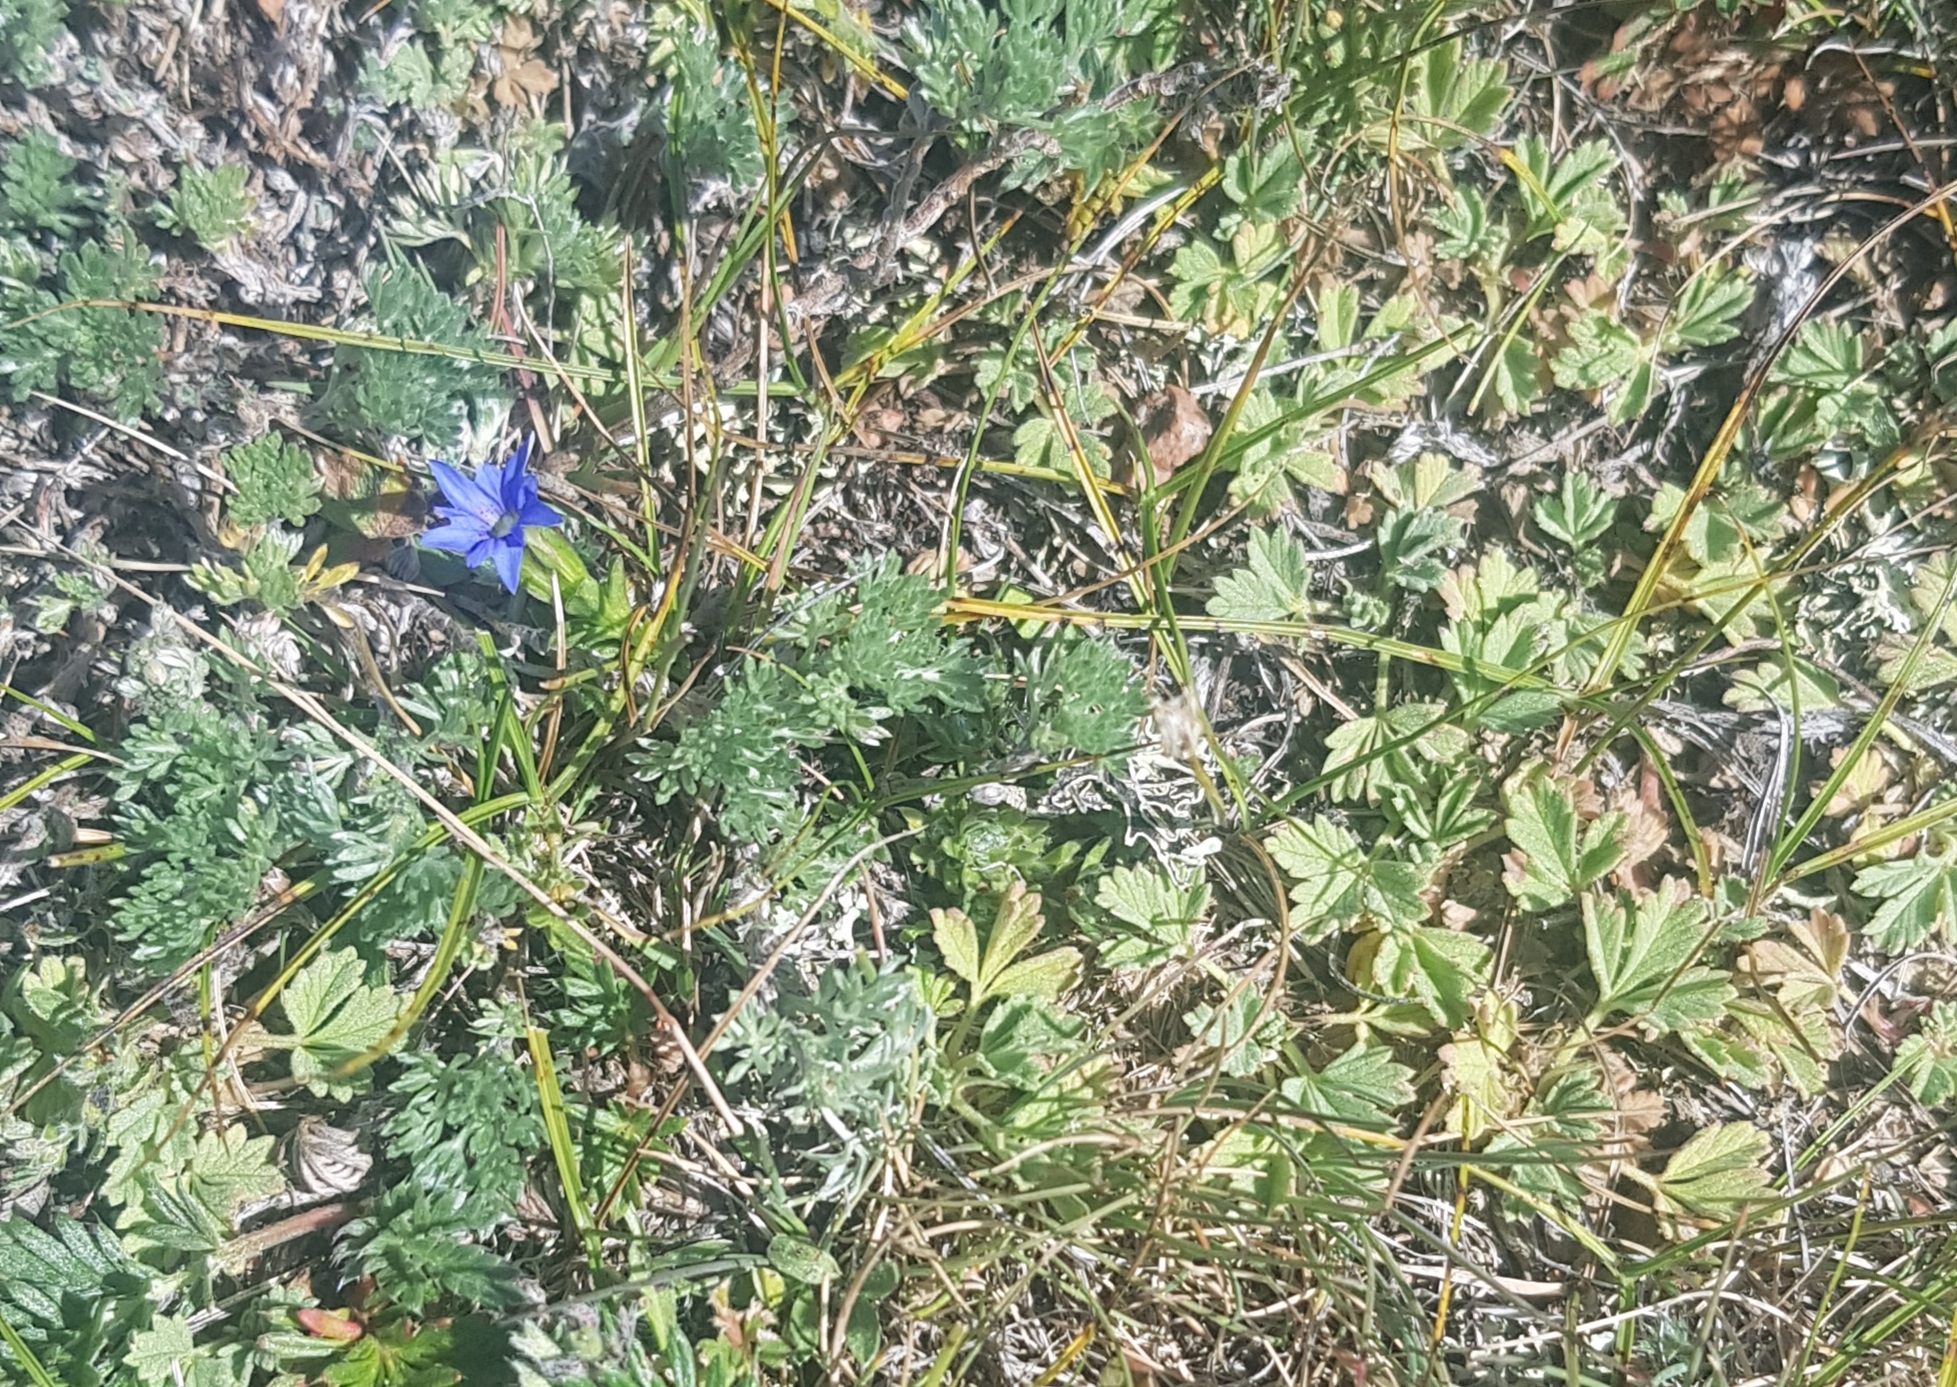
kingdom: Plantae
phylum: Tracheophyta
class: Magnoliopsida
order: Rosales
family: Rosaceae
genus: Potentilla
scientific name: Potentilla acaulis
